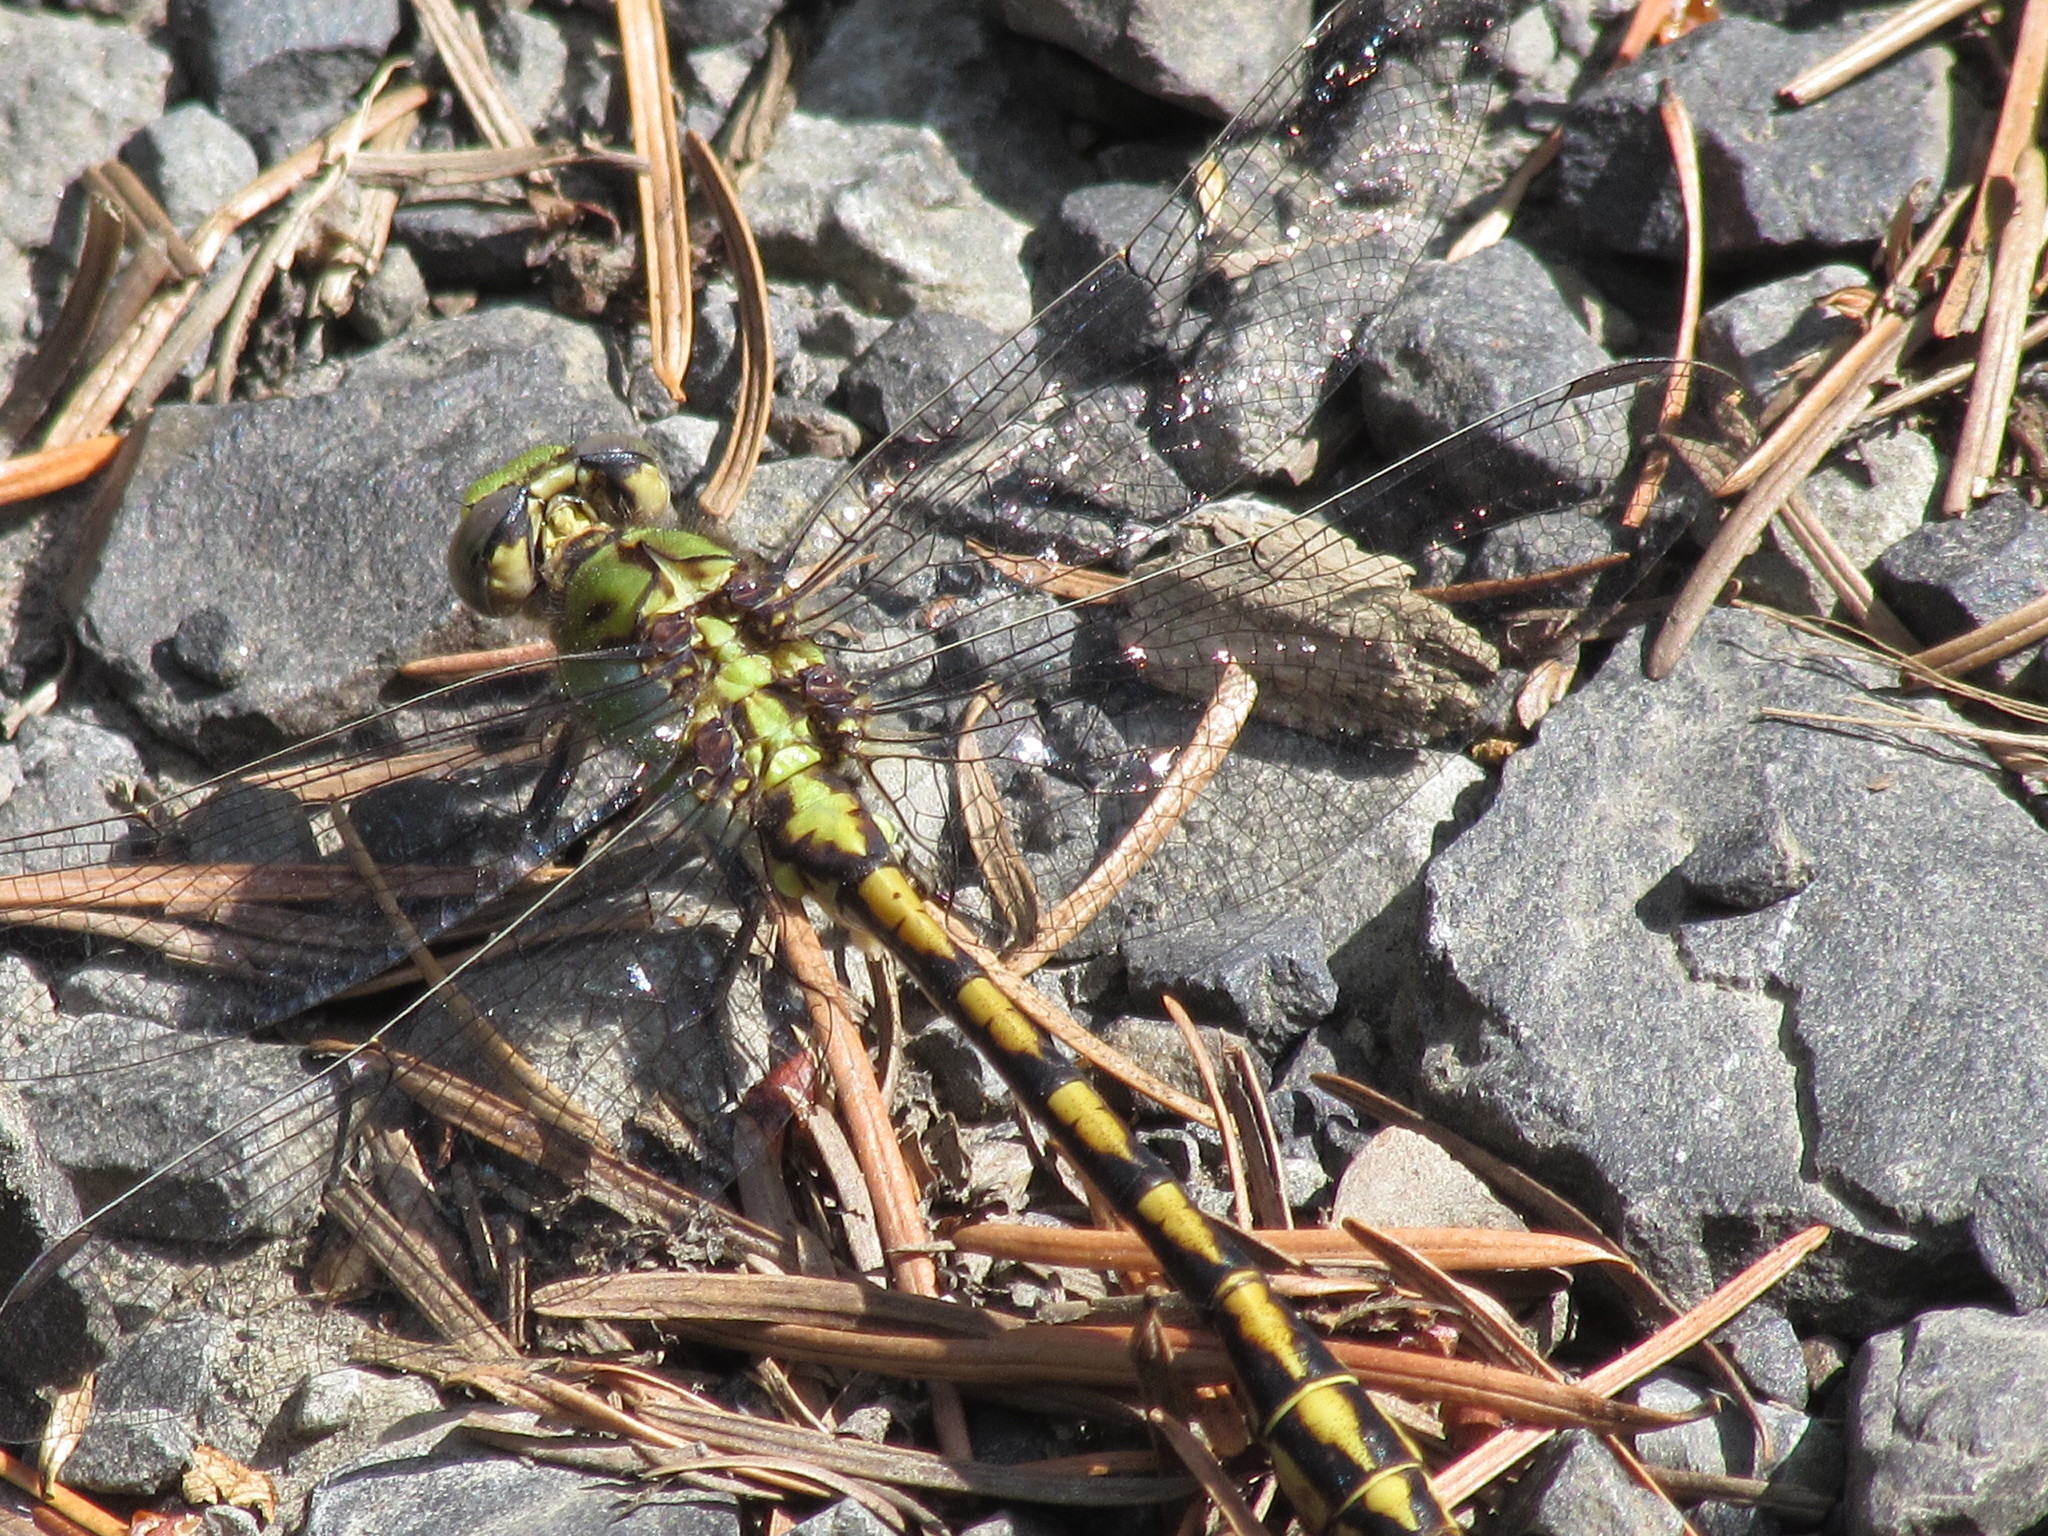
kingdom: Animalia
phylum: Arthropoda
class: Insecta
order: Odonata
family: Gomphidae
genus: Ophiogomphus
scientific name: Ophiogomphus severus
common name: Pale snaketail
